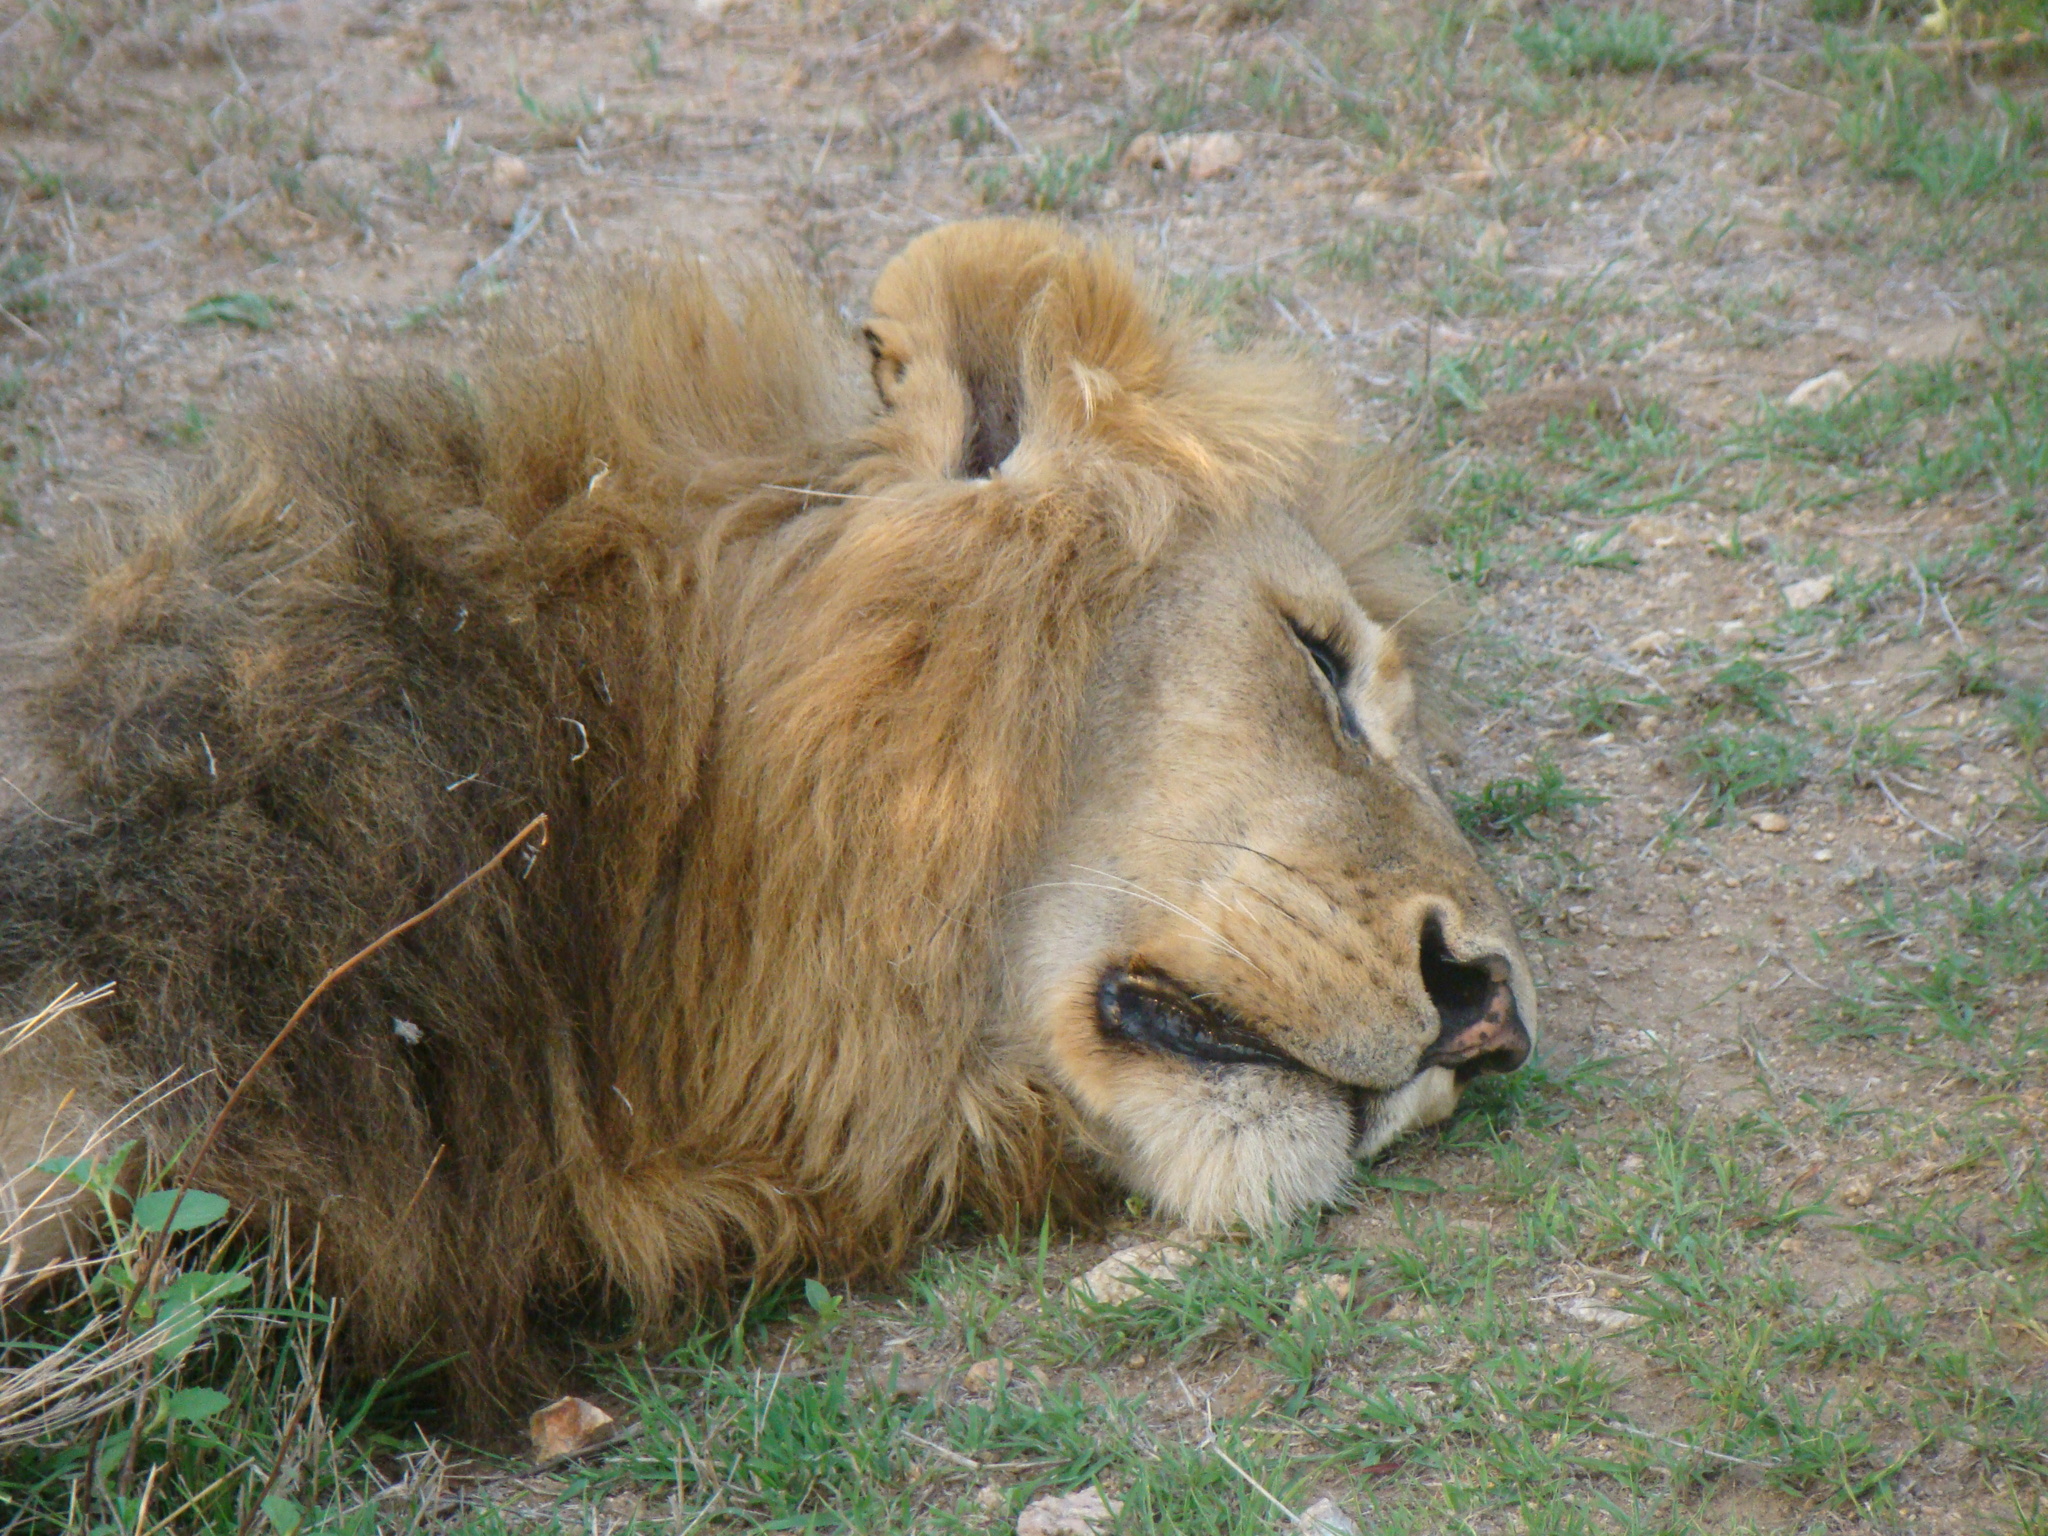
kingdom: Animalia
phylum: Chordata
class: Mammalia
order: Carnivora
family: Felidae
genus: Panthera
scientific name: Panthera leo
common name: Lion
